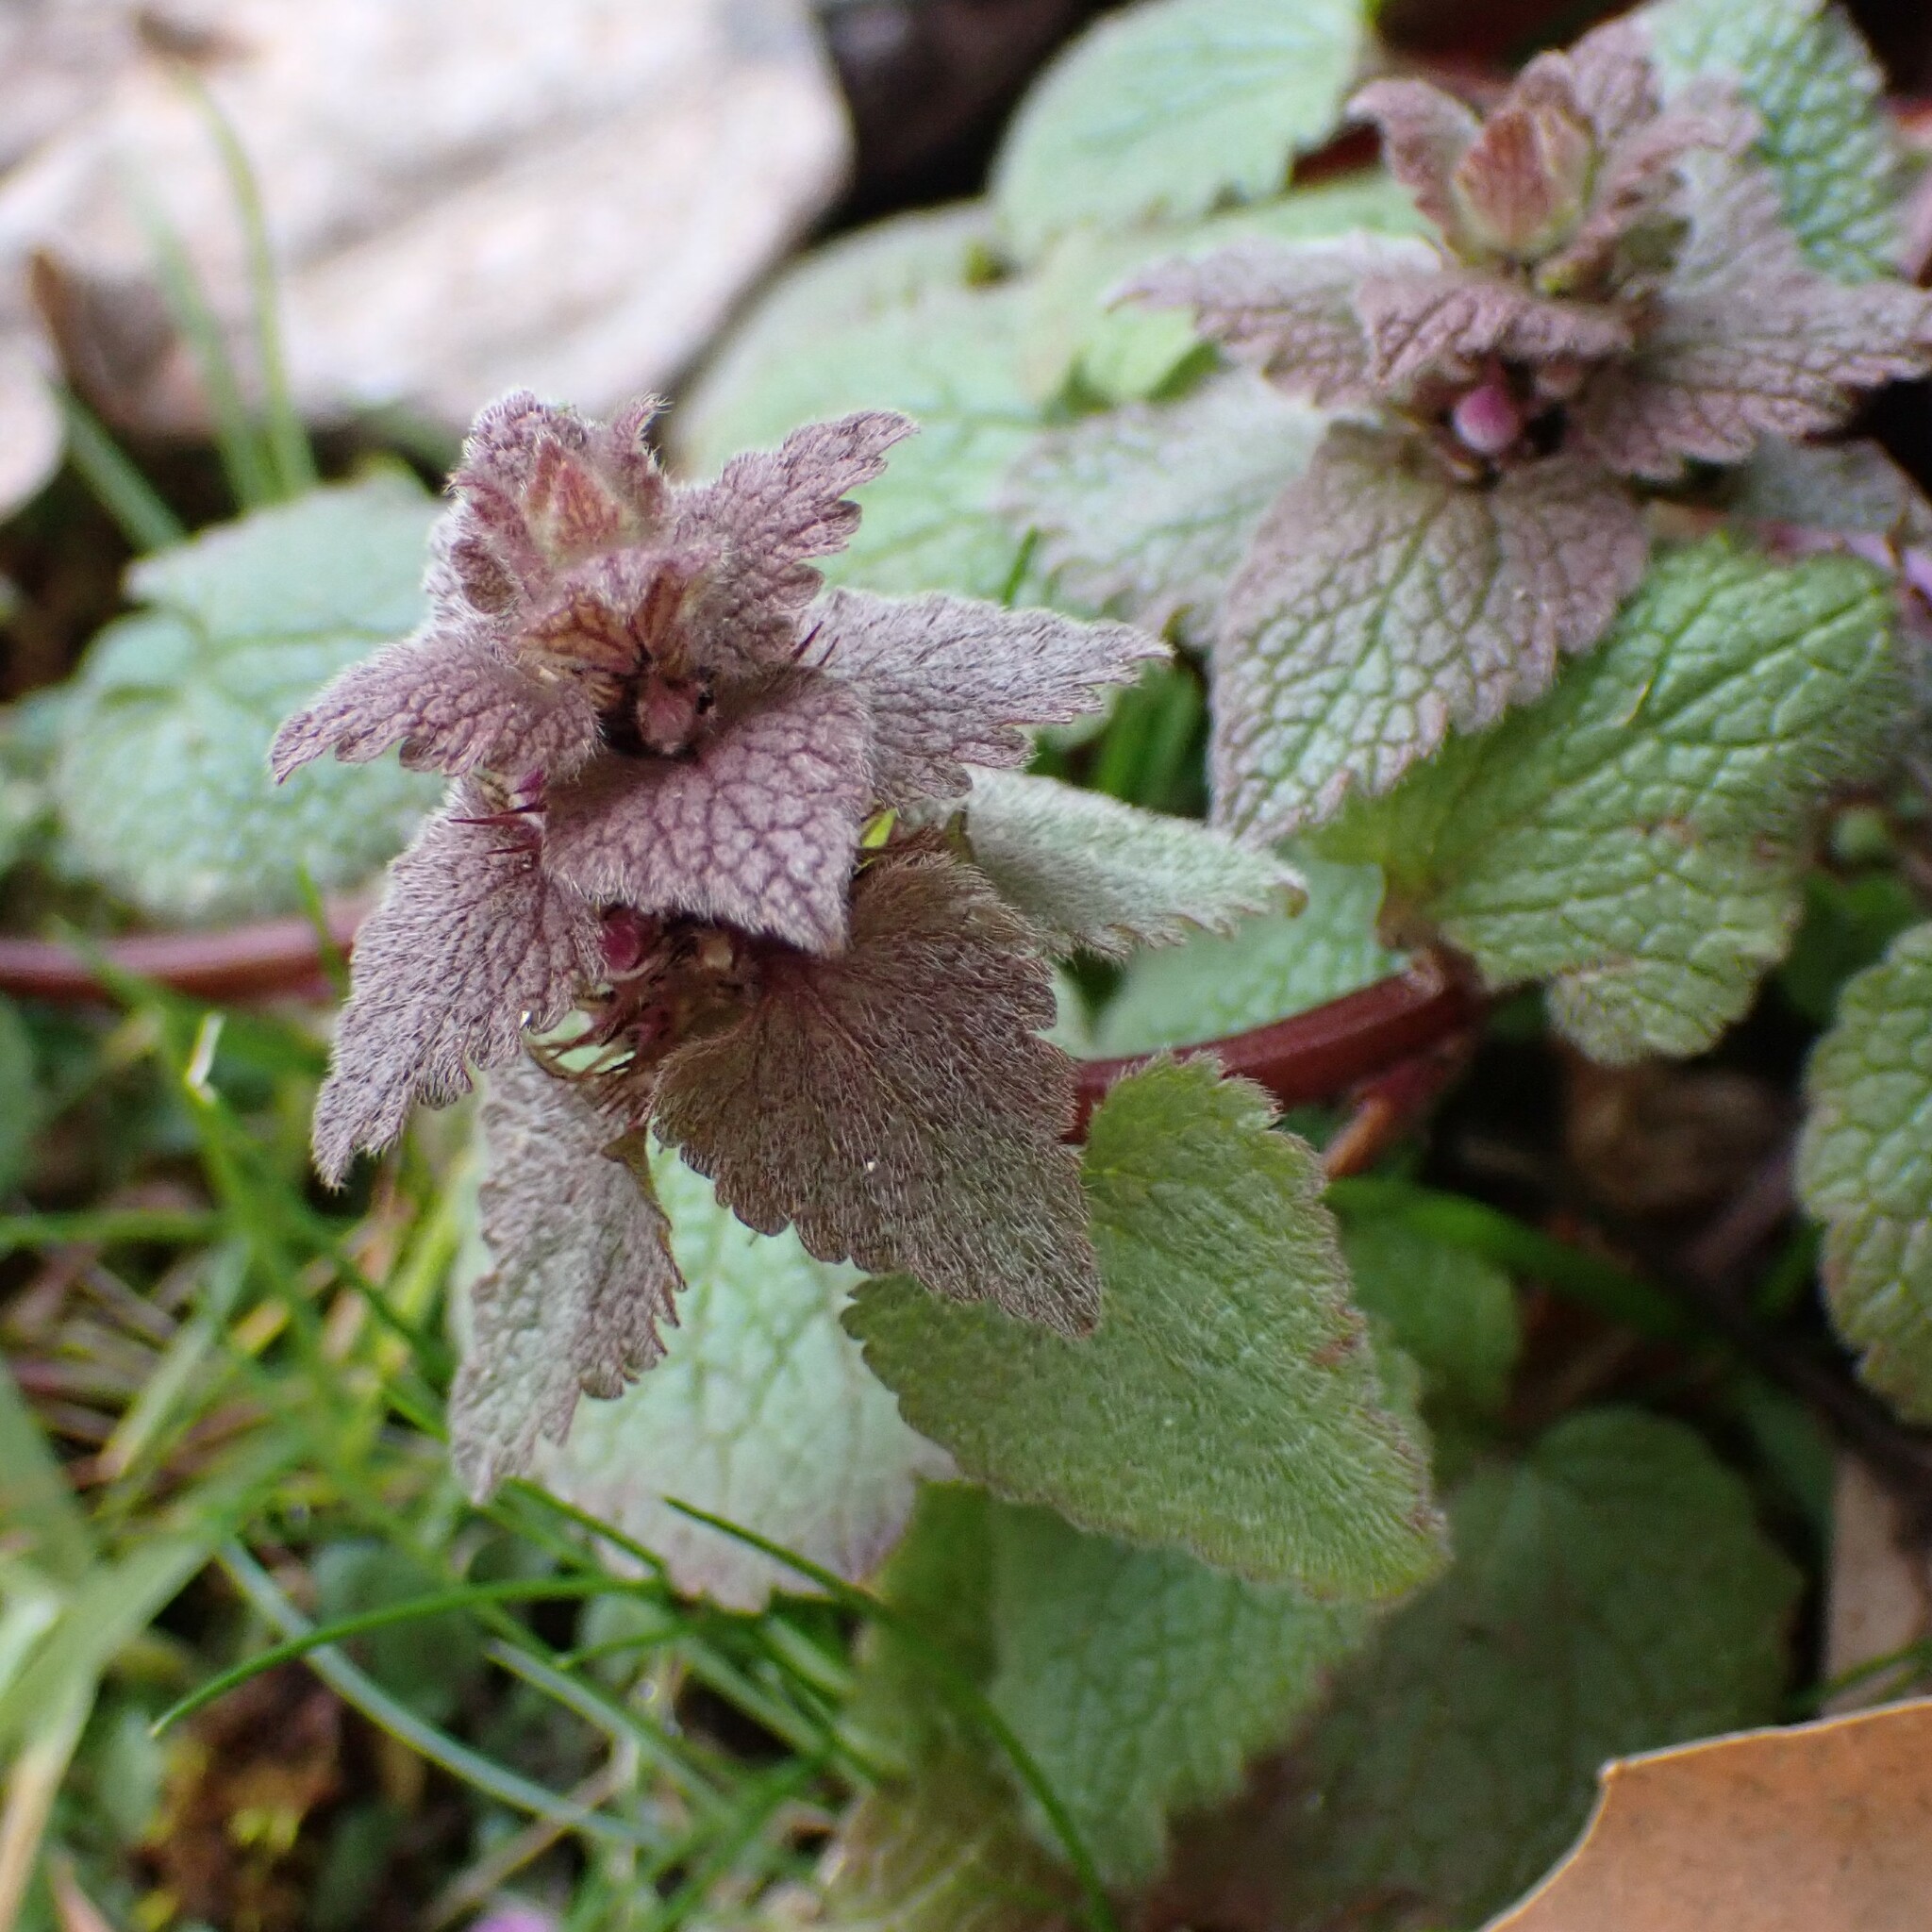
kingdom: Plantae
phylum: Tracheophyta
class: Magnoliopsida
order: Lamiales
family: Lamiaceae
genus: Lamium
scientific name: Lamium purpureum
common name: Red dead-nettle
